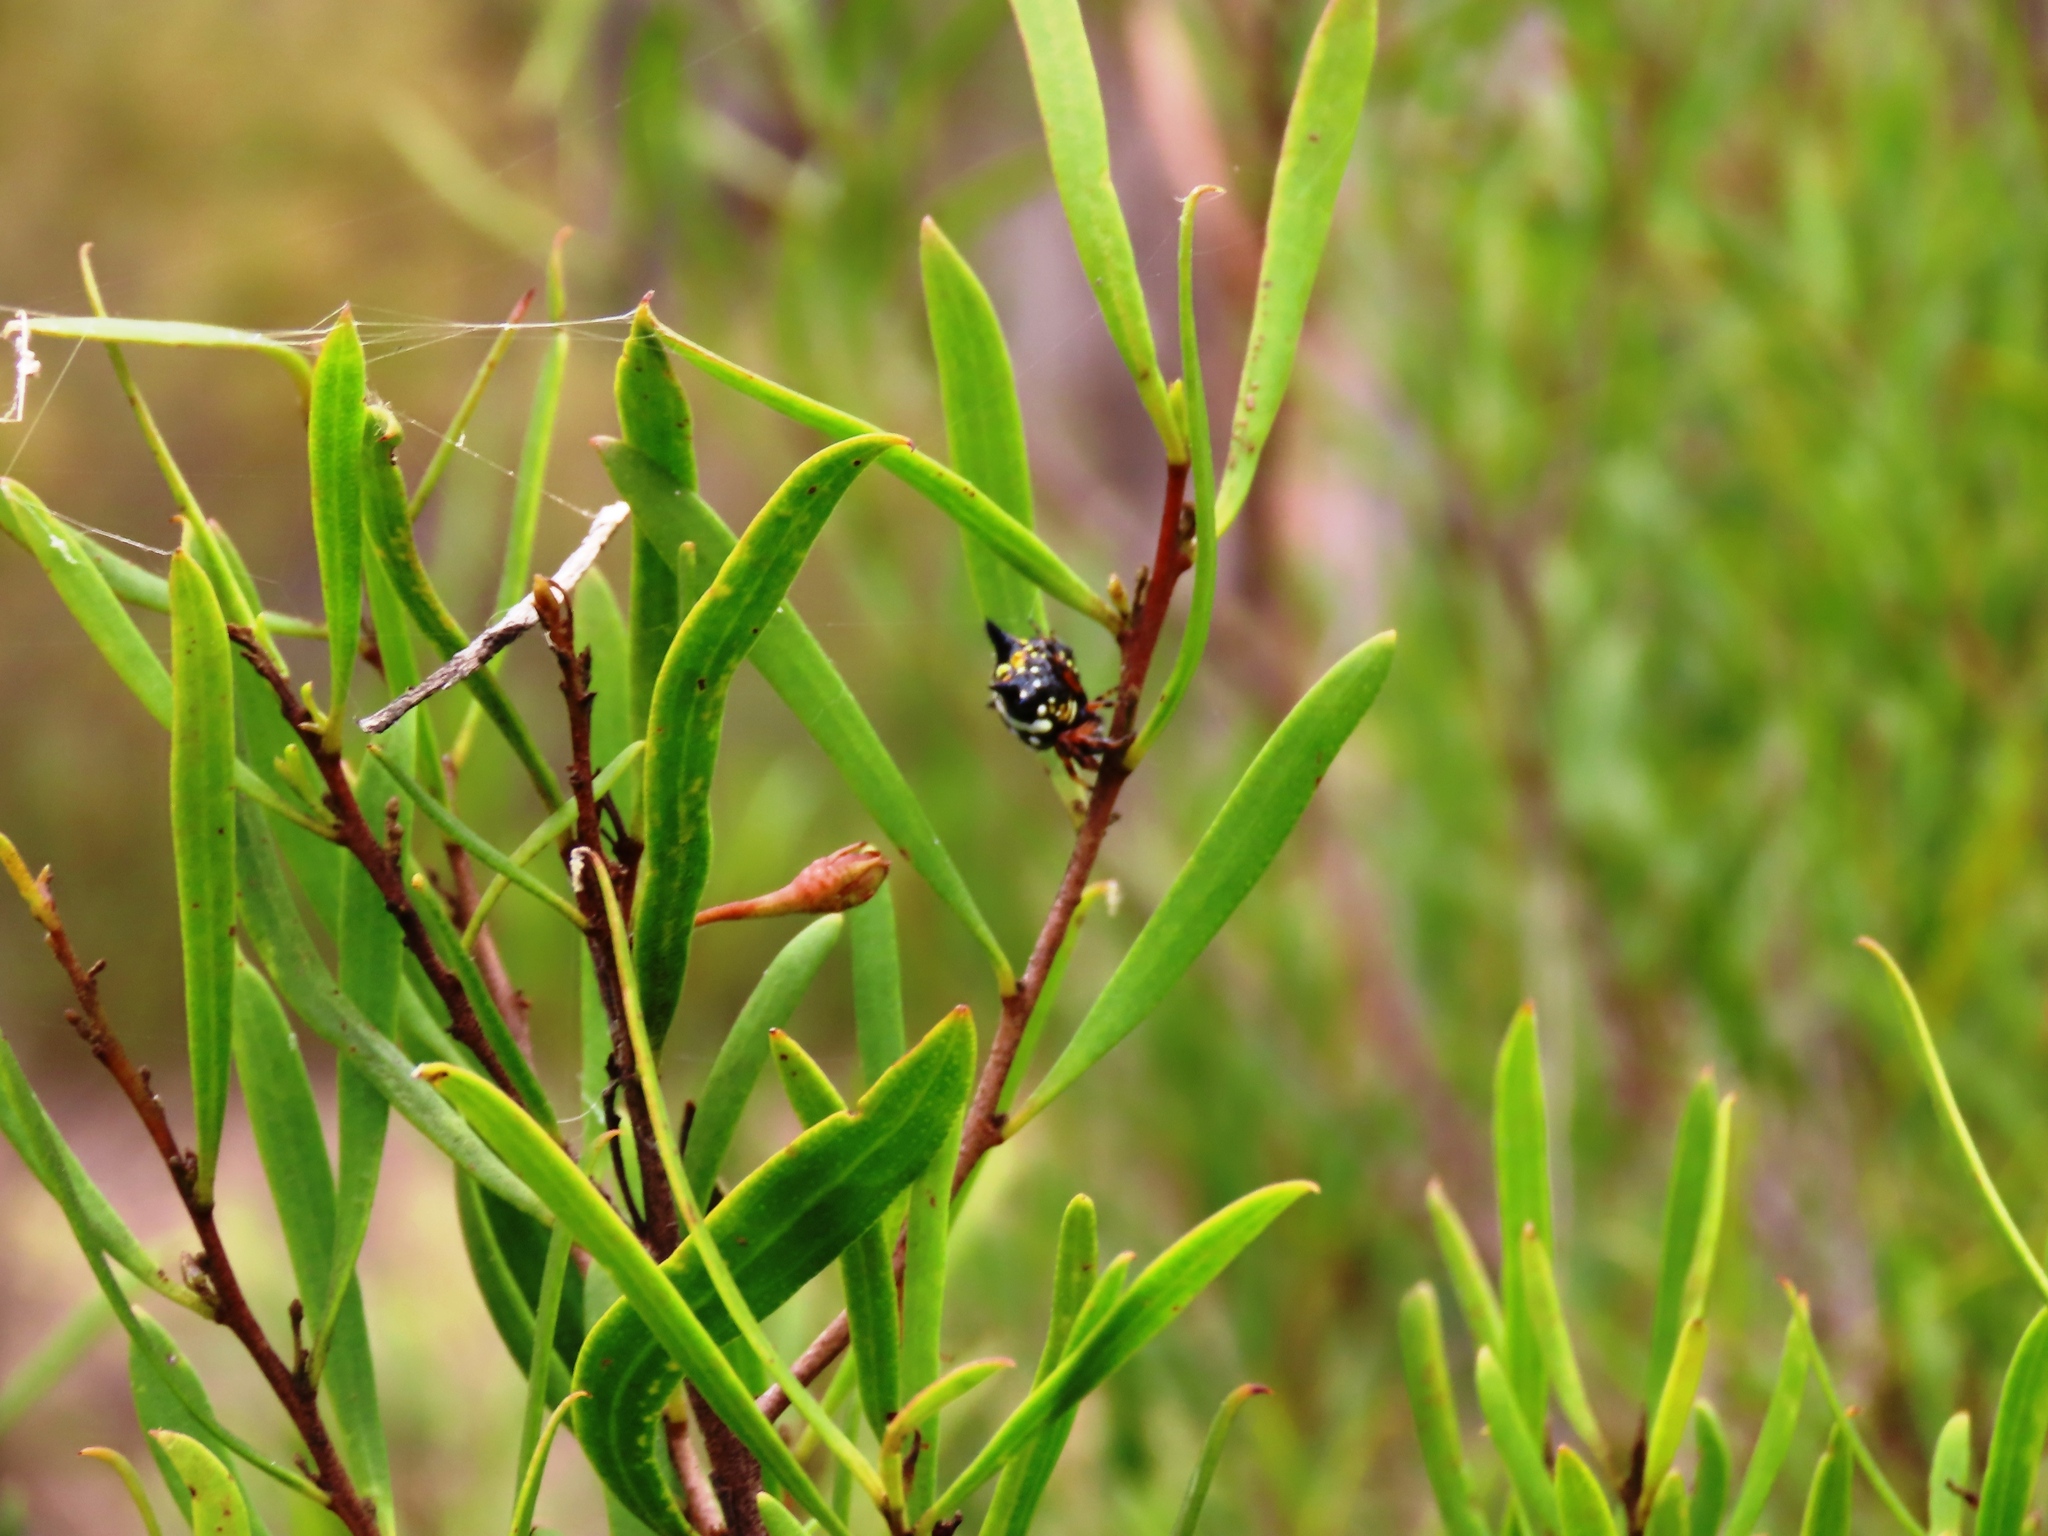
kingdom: Plantae
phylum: Tracheophyta
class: Magnoliopsida
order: Lamiales
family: Scrophulariaceae
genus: Eremophila
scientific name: Eremophila deserti
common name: Ellangowan-poisonbush
